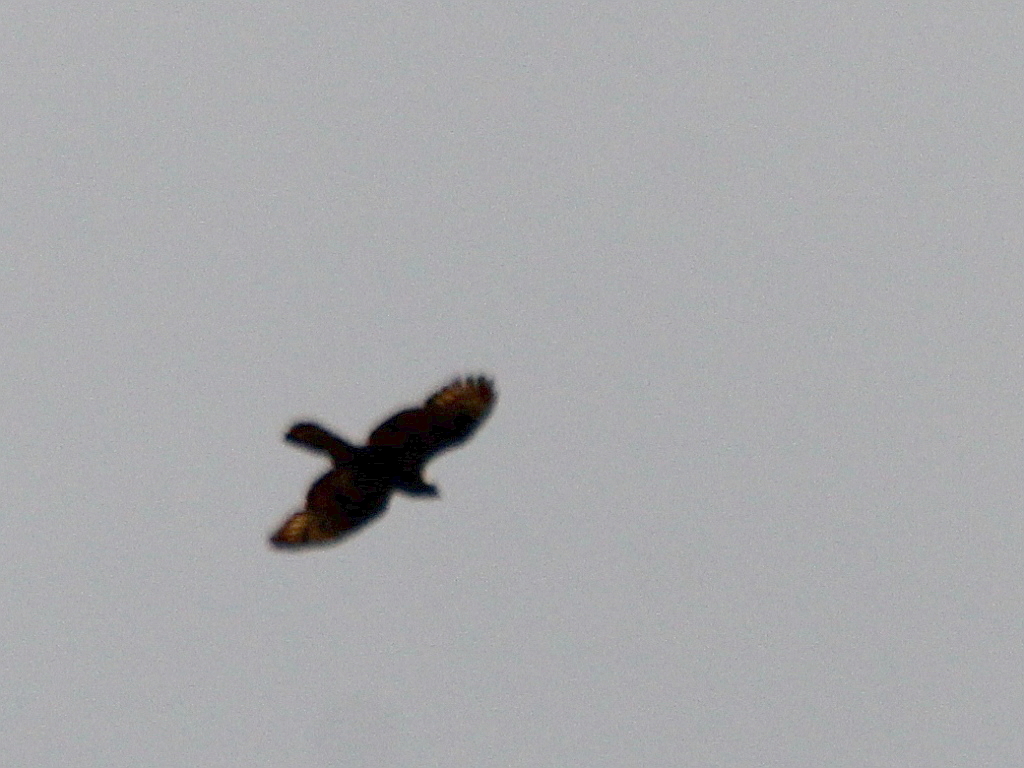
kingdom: Animalia
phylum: Chordata
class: Aves
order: Accipitriformes
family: Accipitridae
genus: Pernis
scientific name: Pernis apivorus
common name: European honey buzzard
